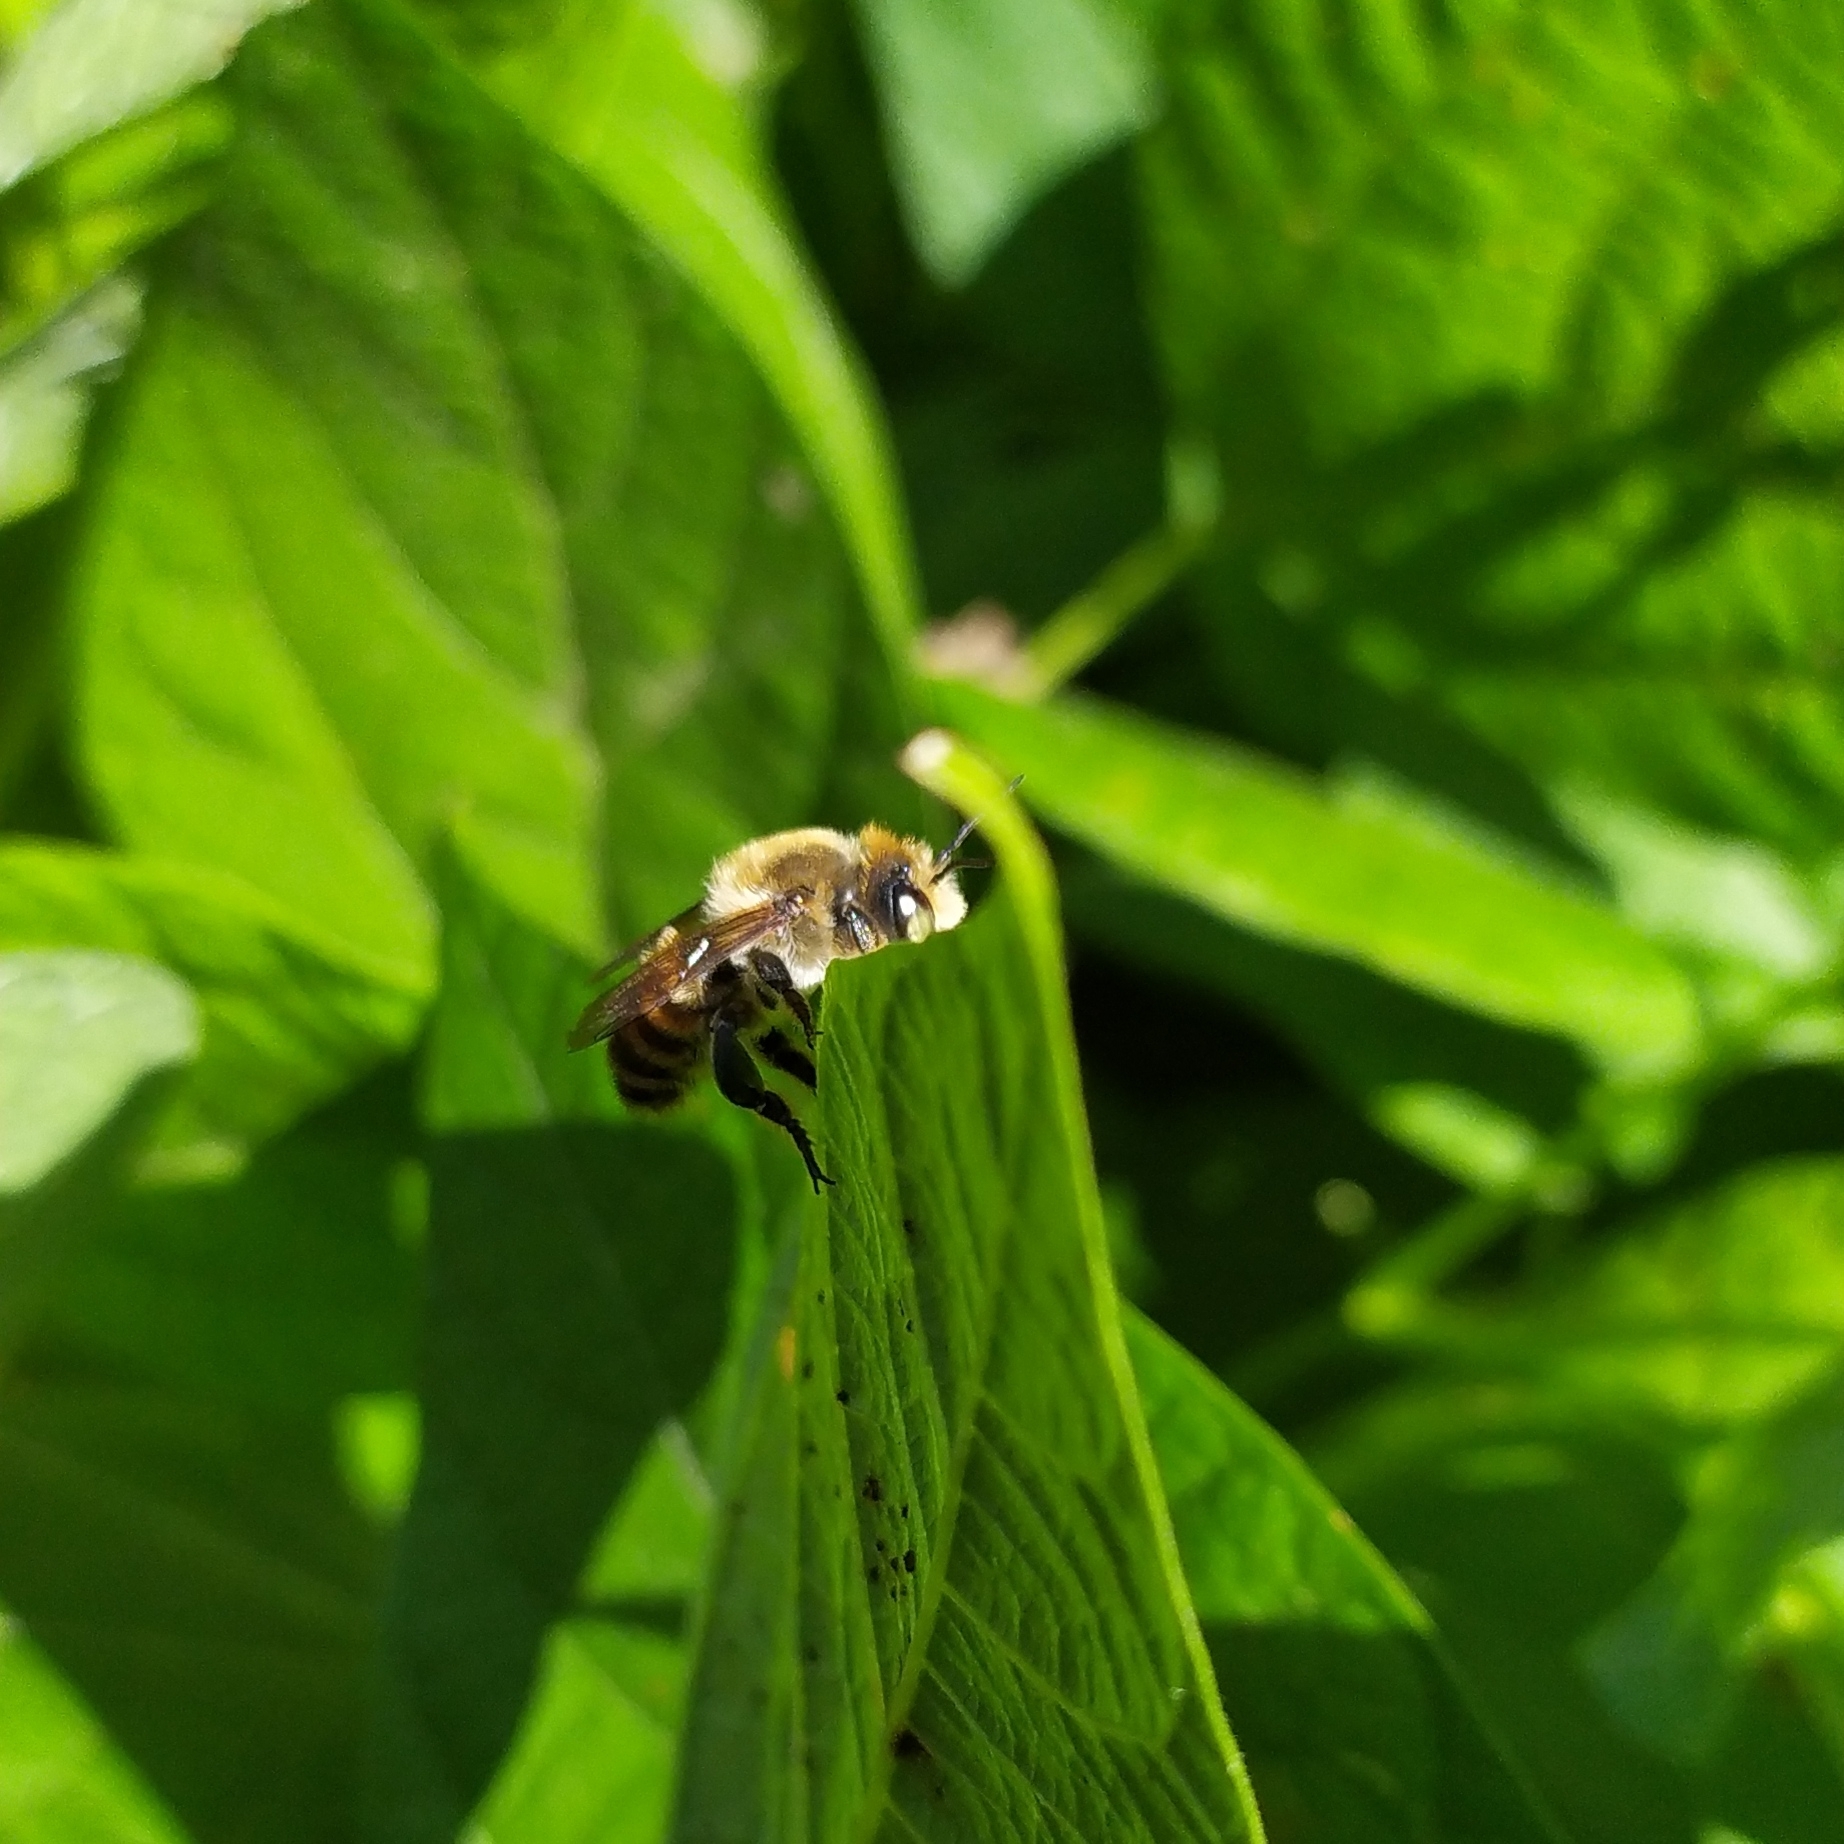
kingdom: Animalia
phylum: Arthropoda
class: Insecta
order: Hymenoptera
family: Megachilidae
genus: Megachile
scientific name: Megachile maritima
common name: Coastal leaf-cutter bee
